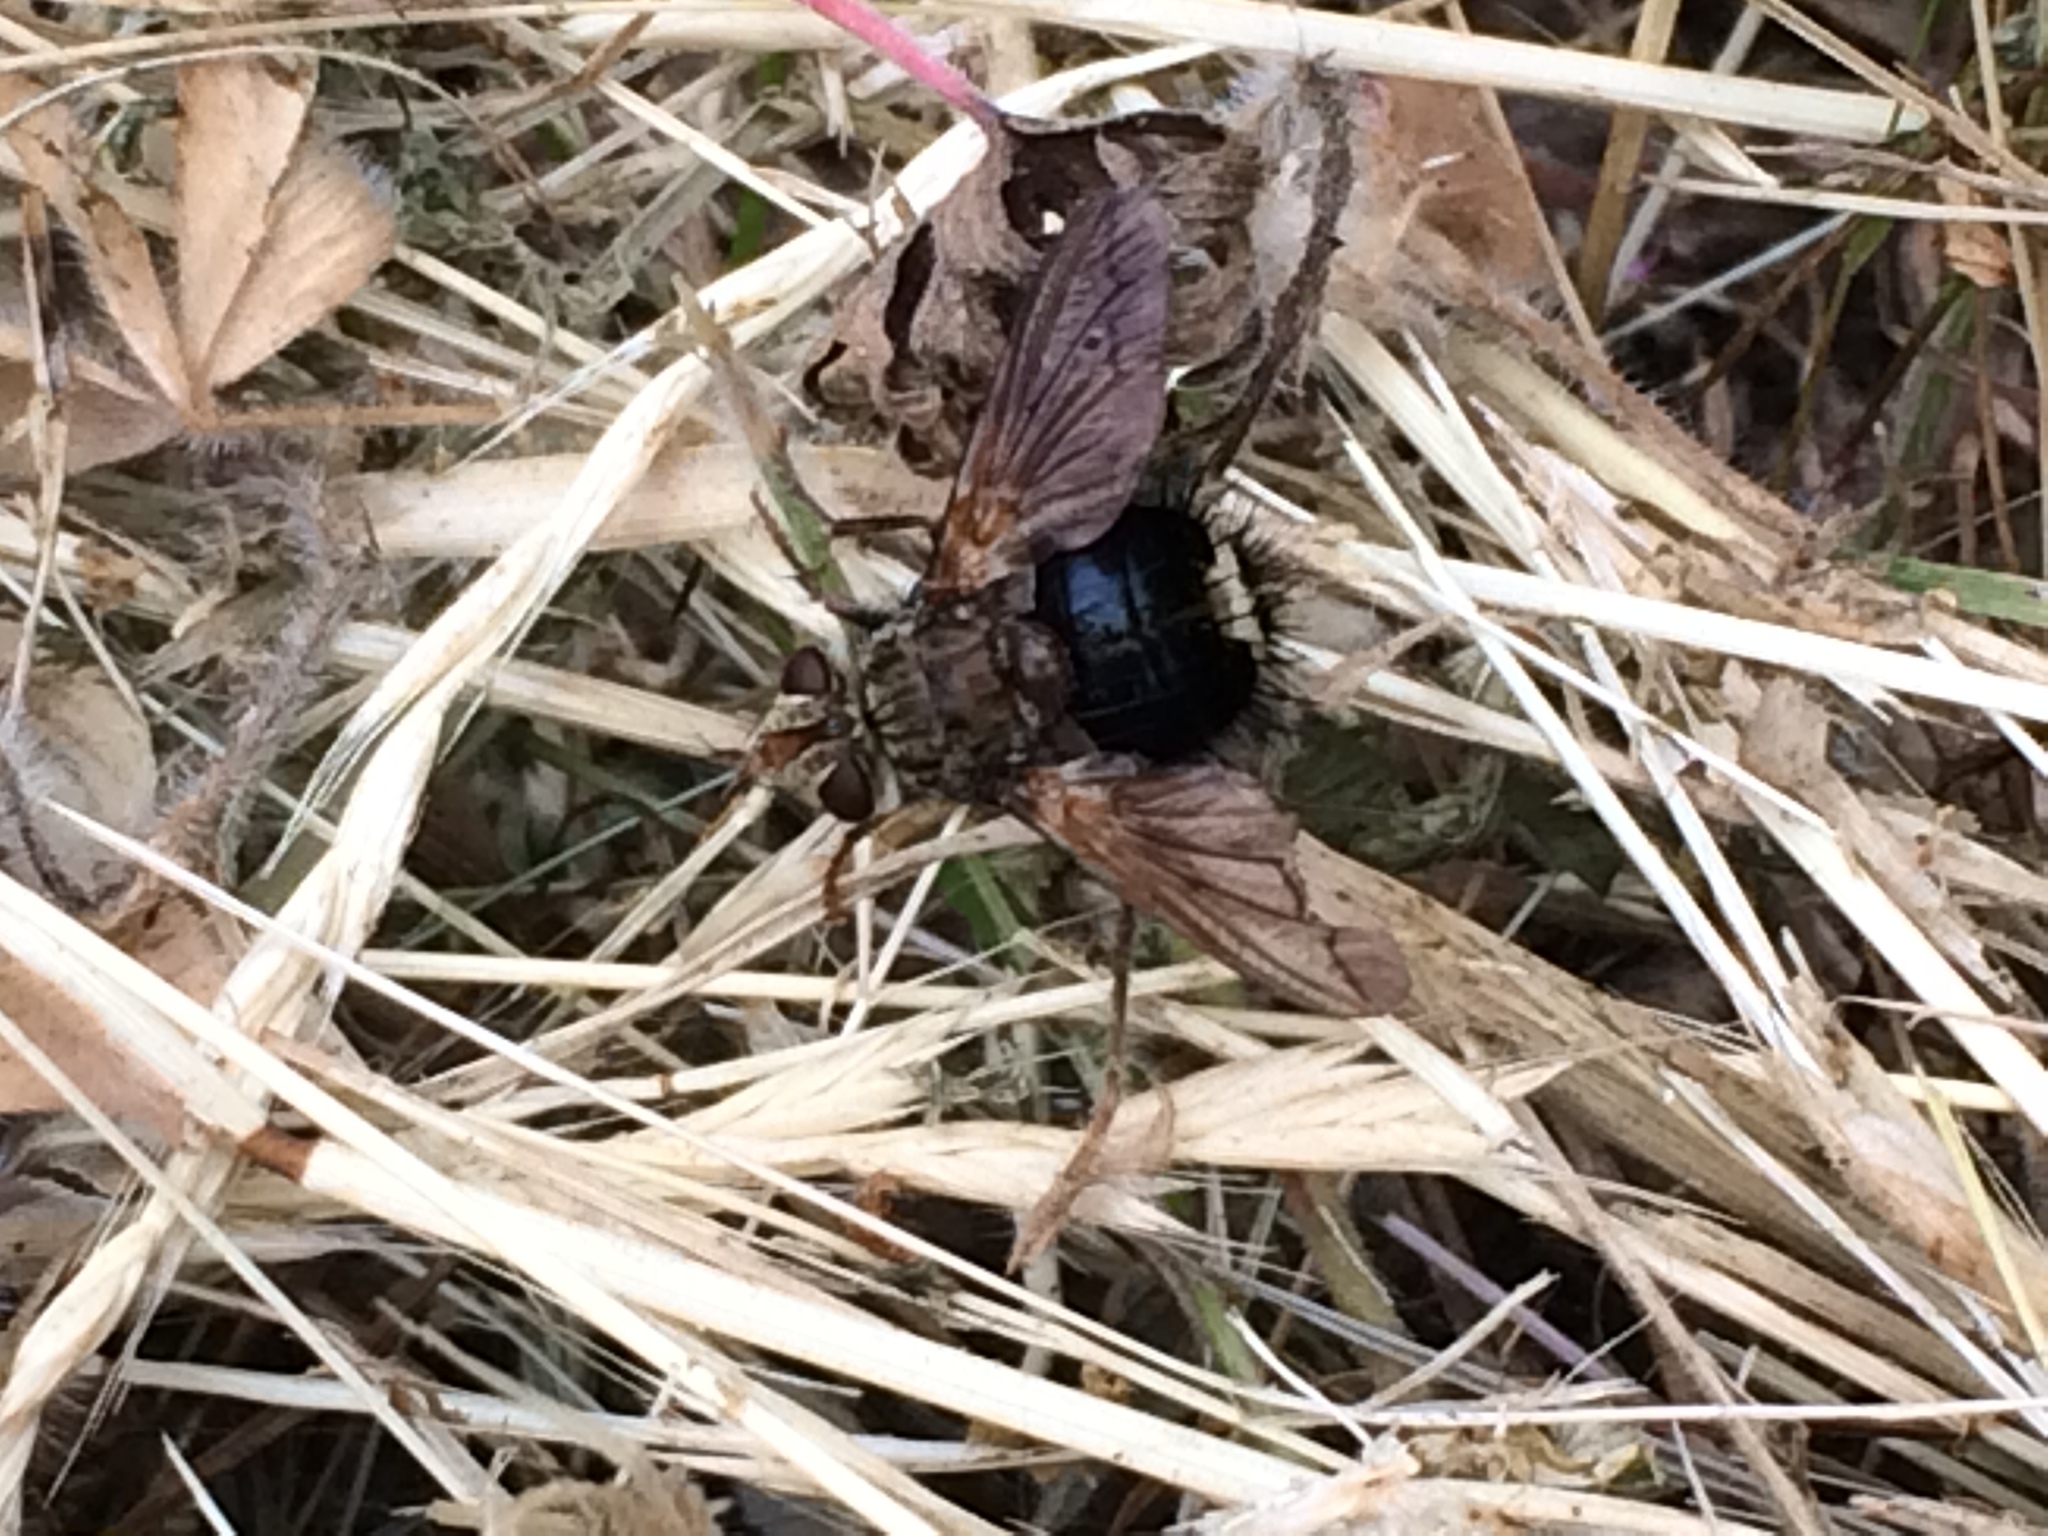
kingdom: Animalia
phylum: Arthropoda
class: Insecta
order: Diptera
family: Tachinidae
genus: Epalpus
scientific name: Epalpus signifer
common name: Early tachinid fly
